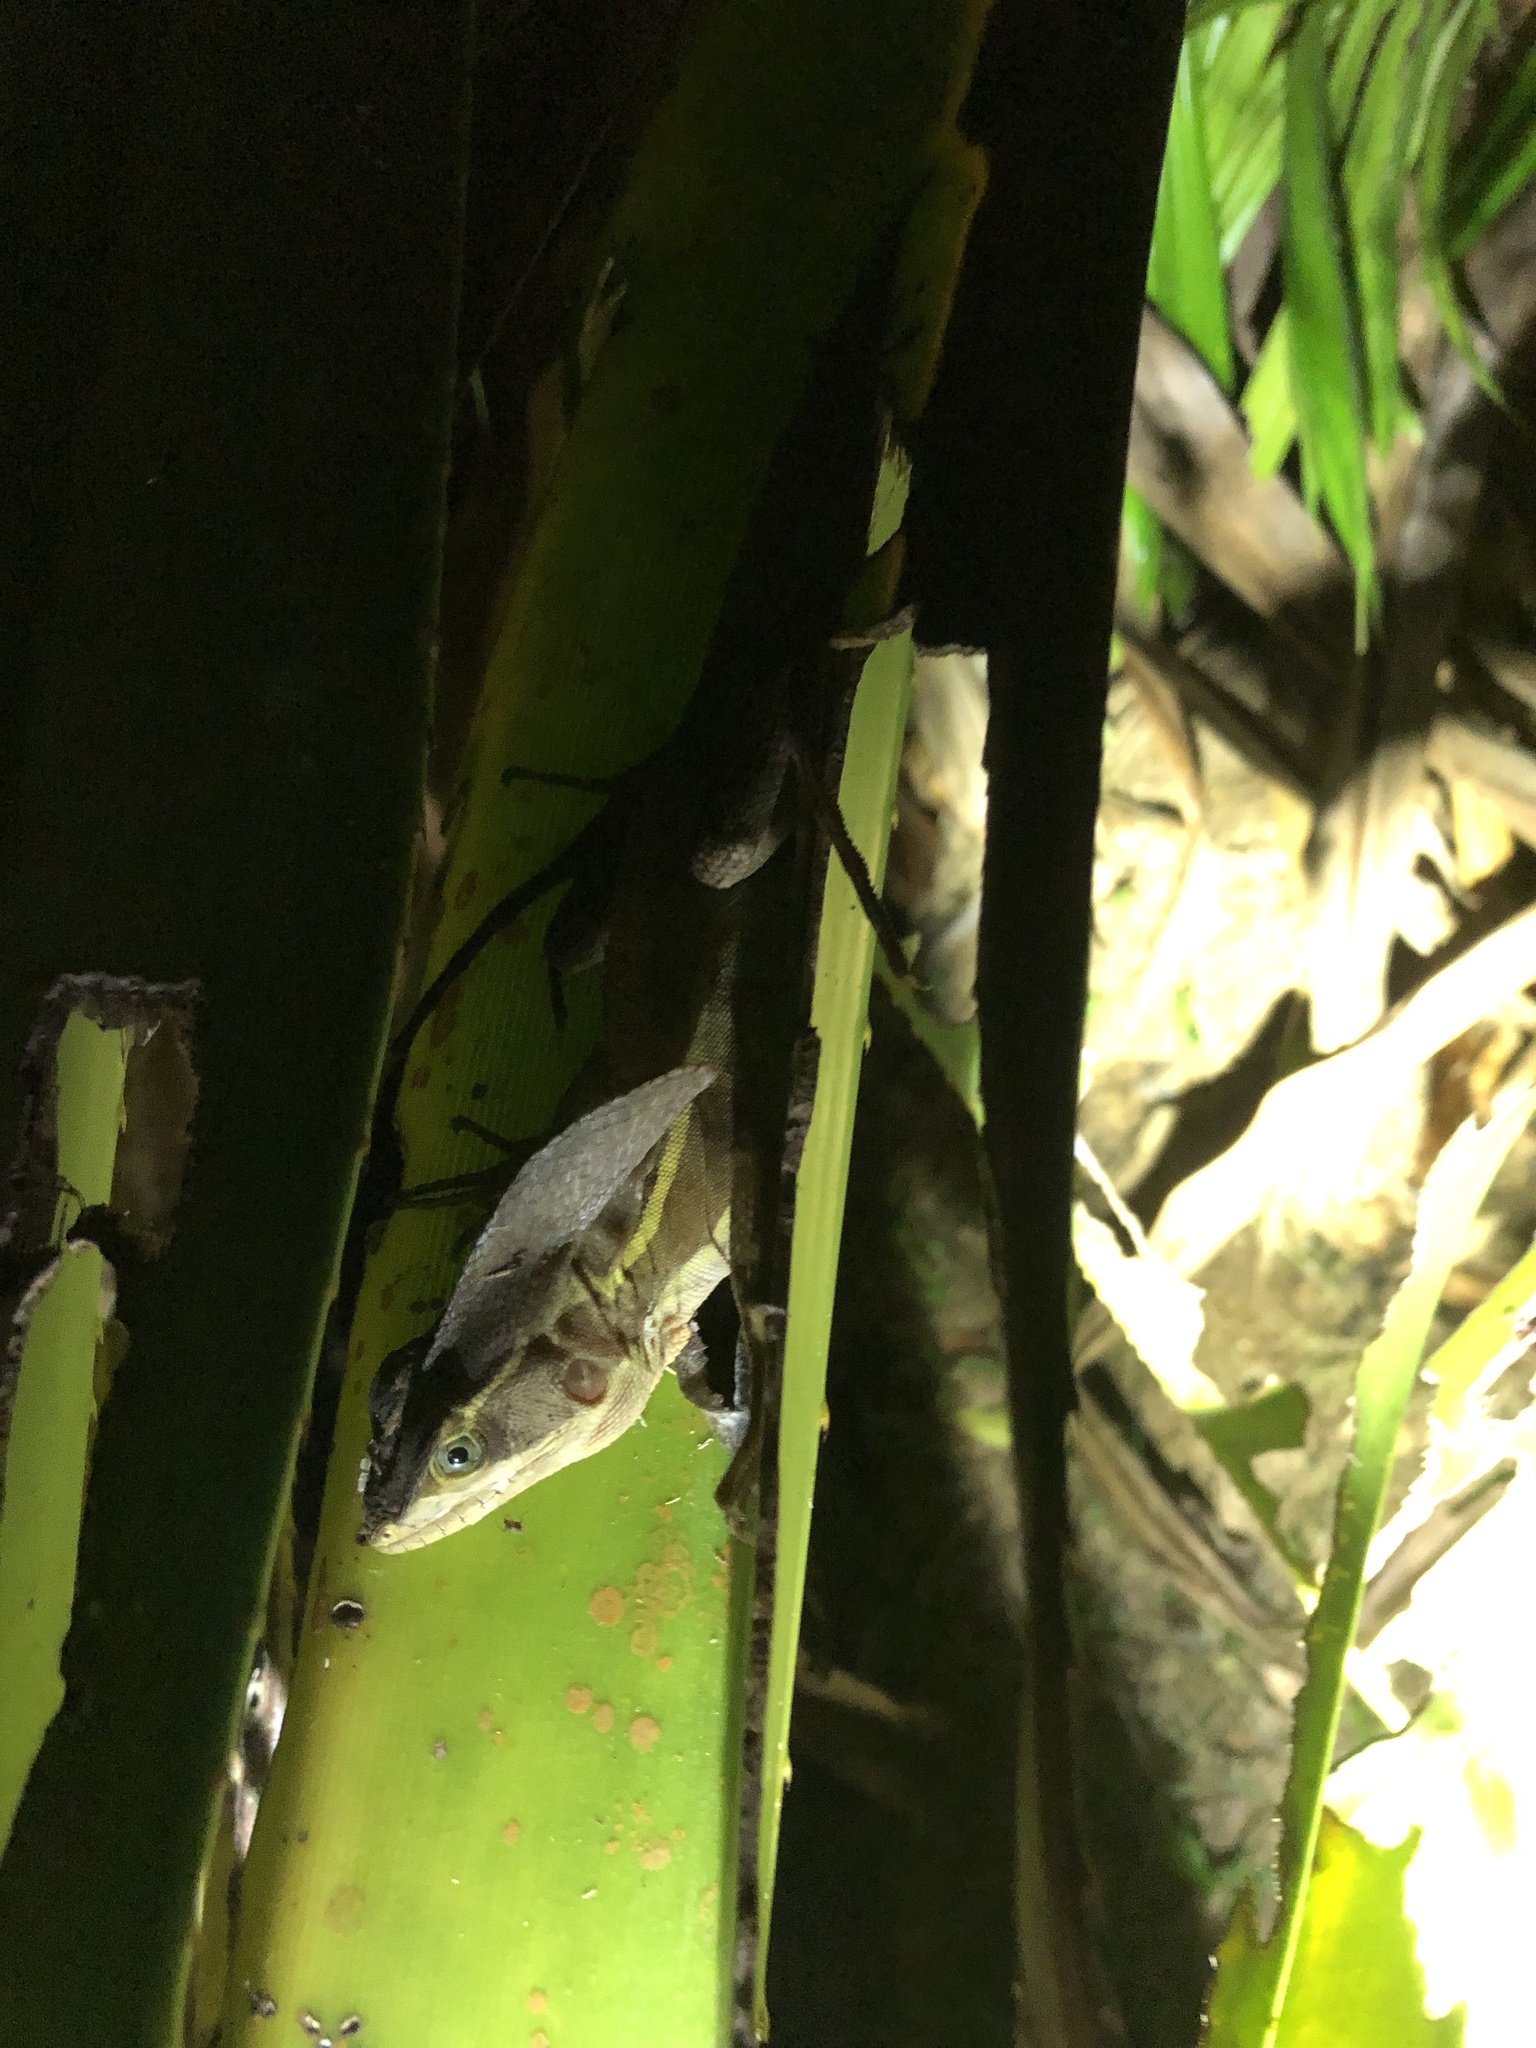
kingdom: Animalia
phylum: Chordata
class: Squamata
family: Corytophanidae
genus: Basiliscus
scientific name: Basiliscus vittatus
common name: Brown basilisk
